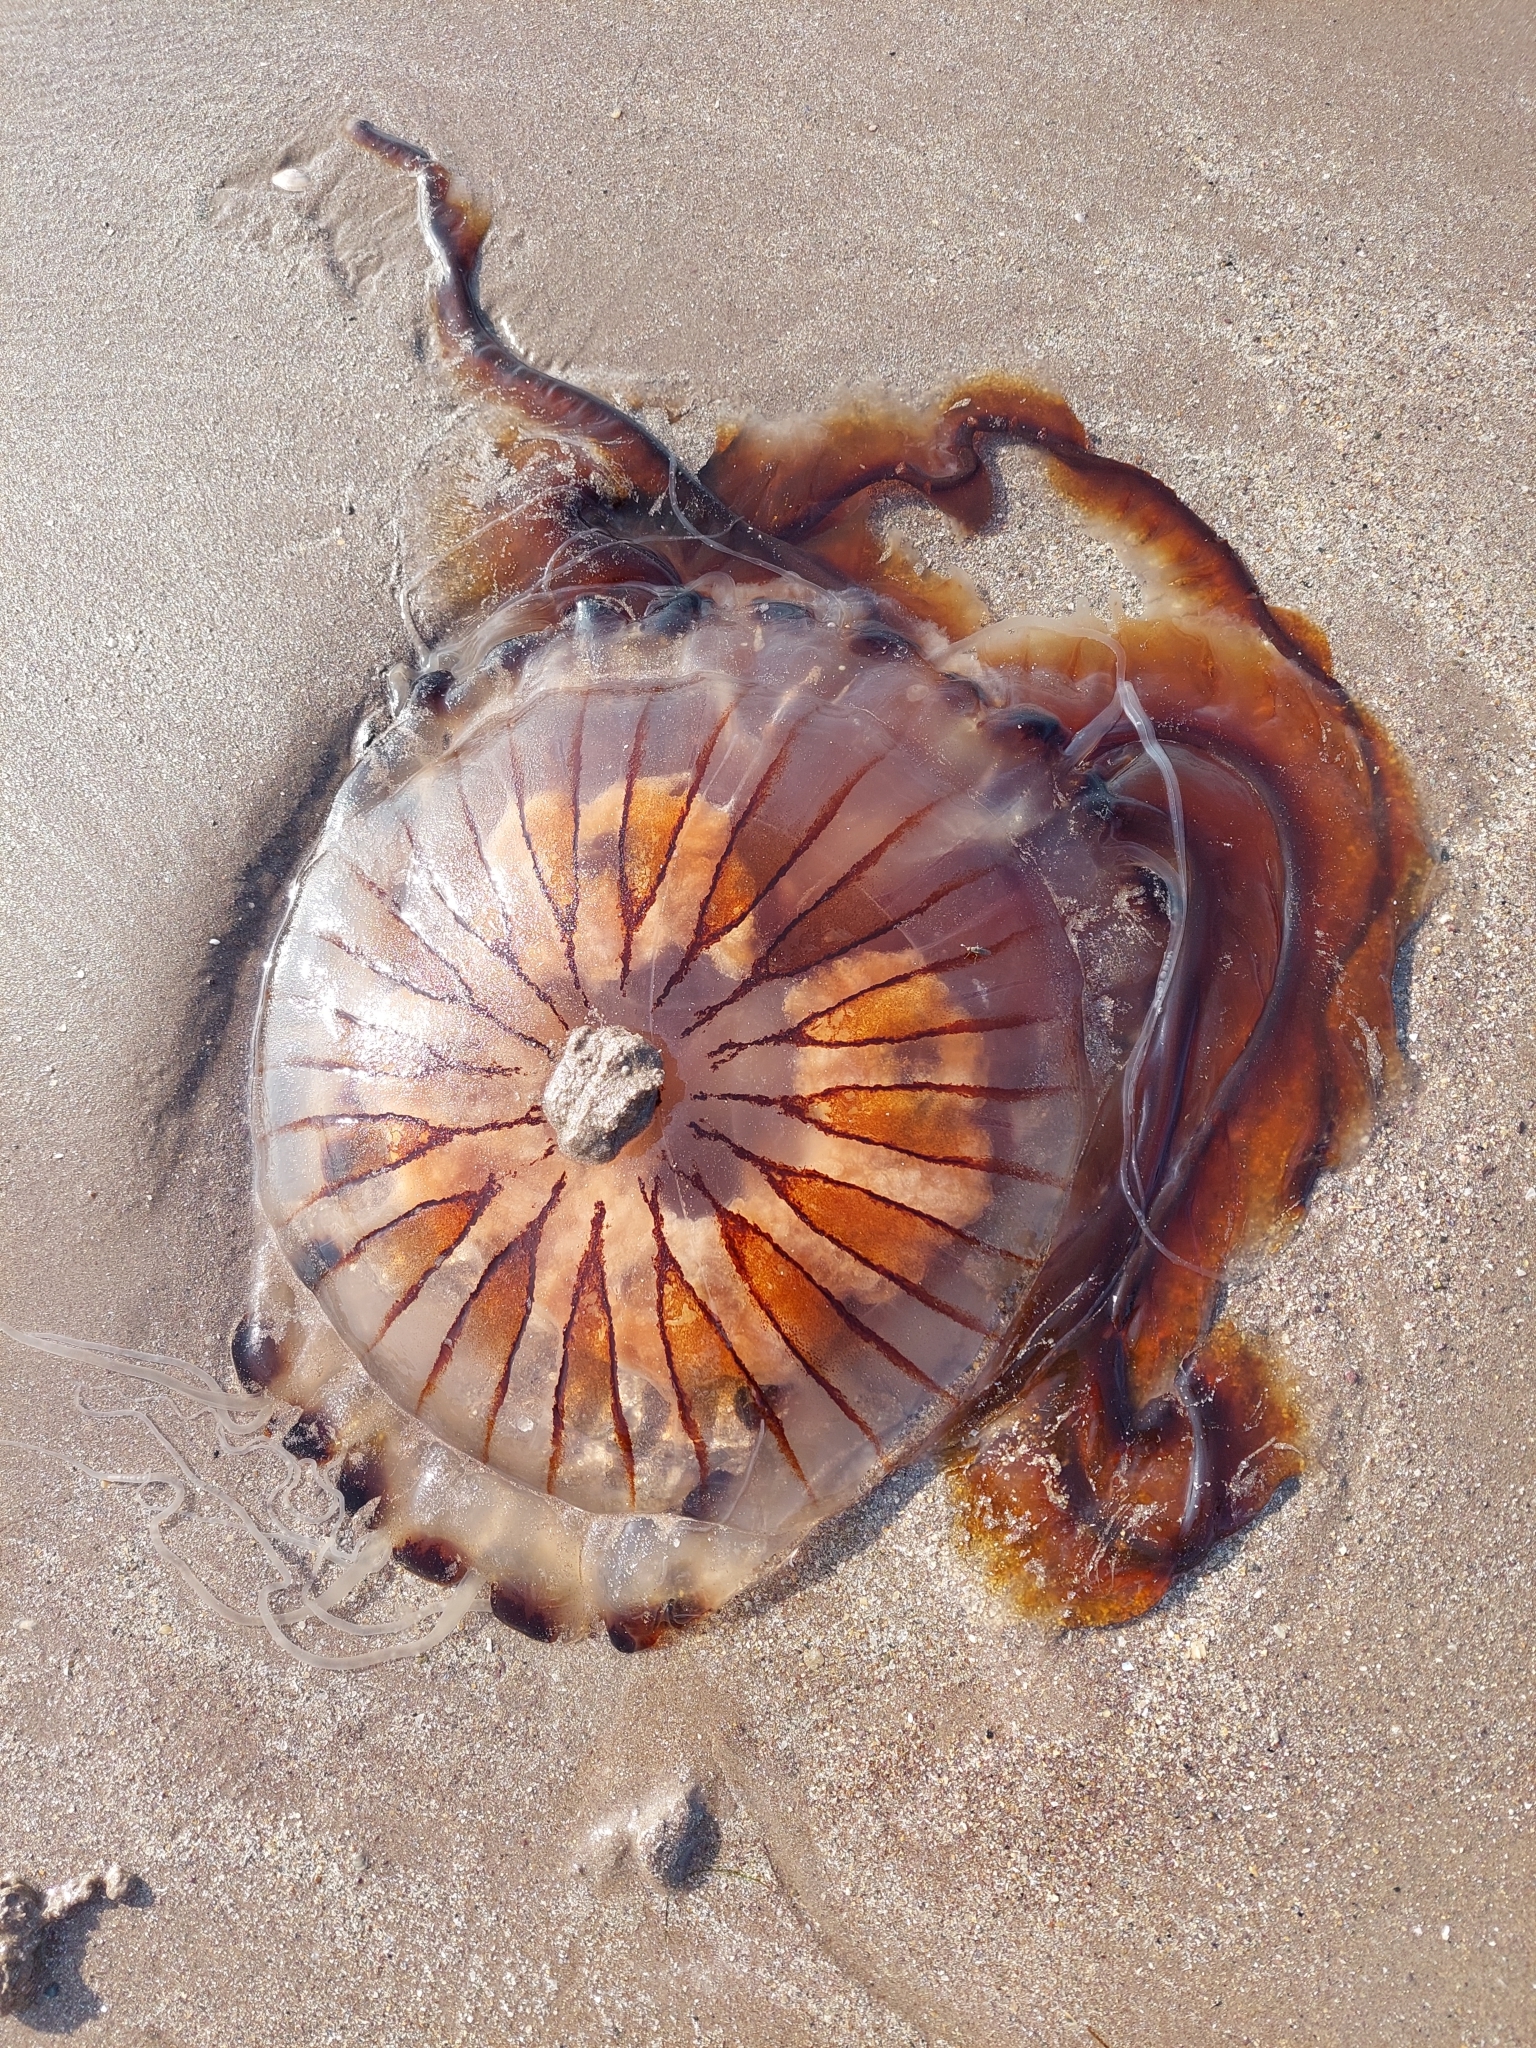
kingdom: Animalia
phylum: Cnidaria
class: Scyphozoa
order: Semaeostomeae
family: Pelagiidae
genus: Chrysaora
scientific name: Chrysaora hysoscella
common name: Compass jellyfish
